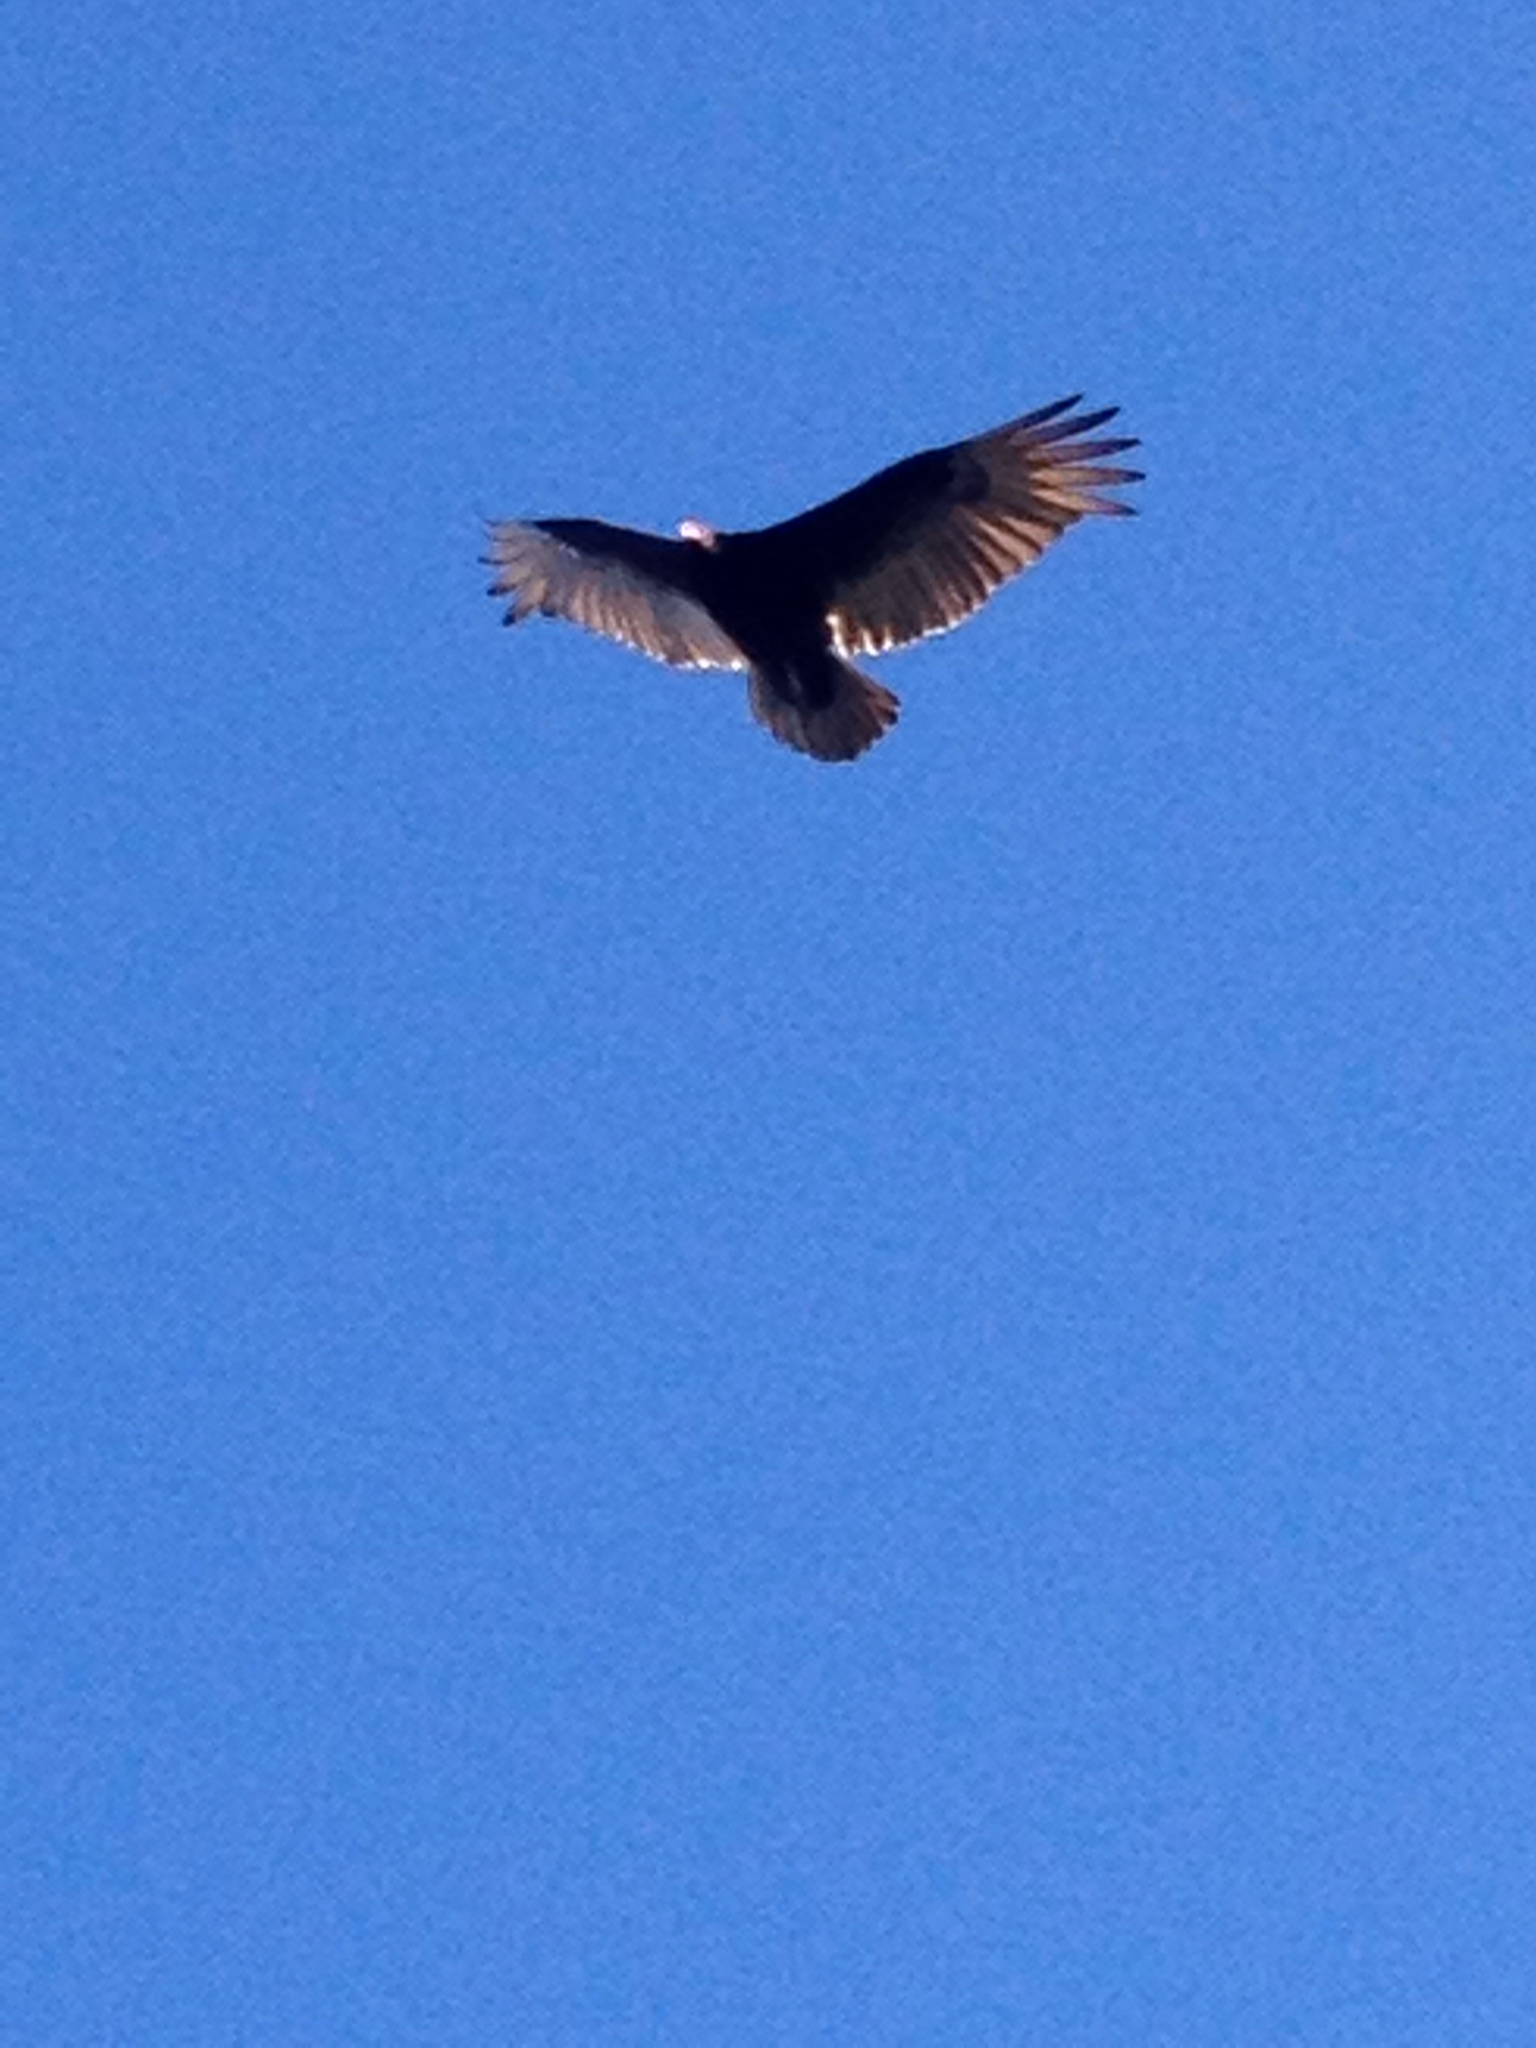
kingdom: Animalia
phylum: Chordata
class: Aves
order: Accipitriformes
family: Cathartidae
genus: Cathartes
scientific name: Cathartes aura
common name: Turkey vulture
